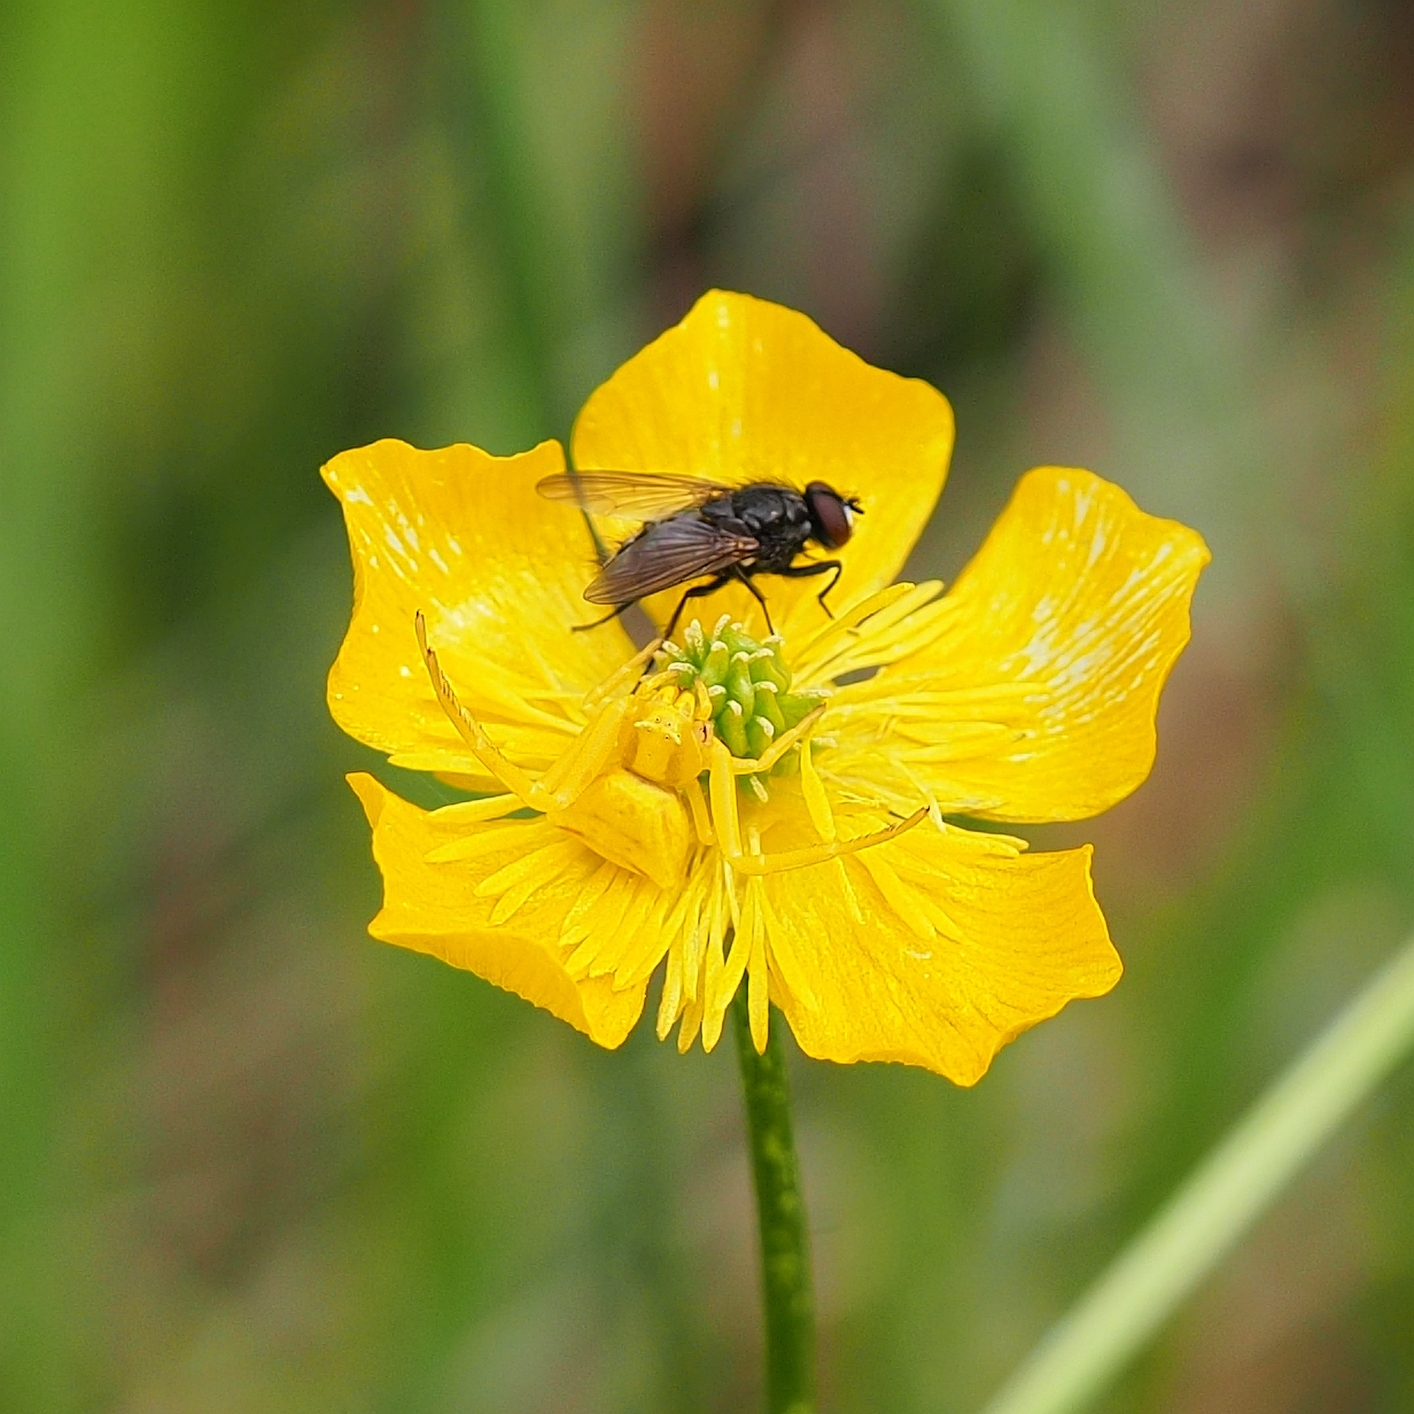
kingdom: Animalia
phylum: Arthropoda
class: Arachnida
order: Araneae
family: Thomisidae
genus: Thomisus
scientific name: Thomisus onustus
